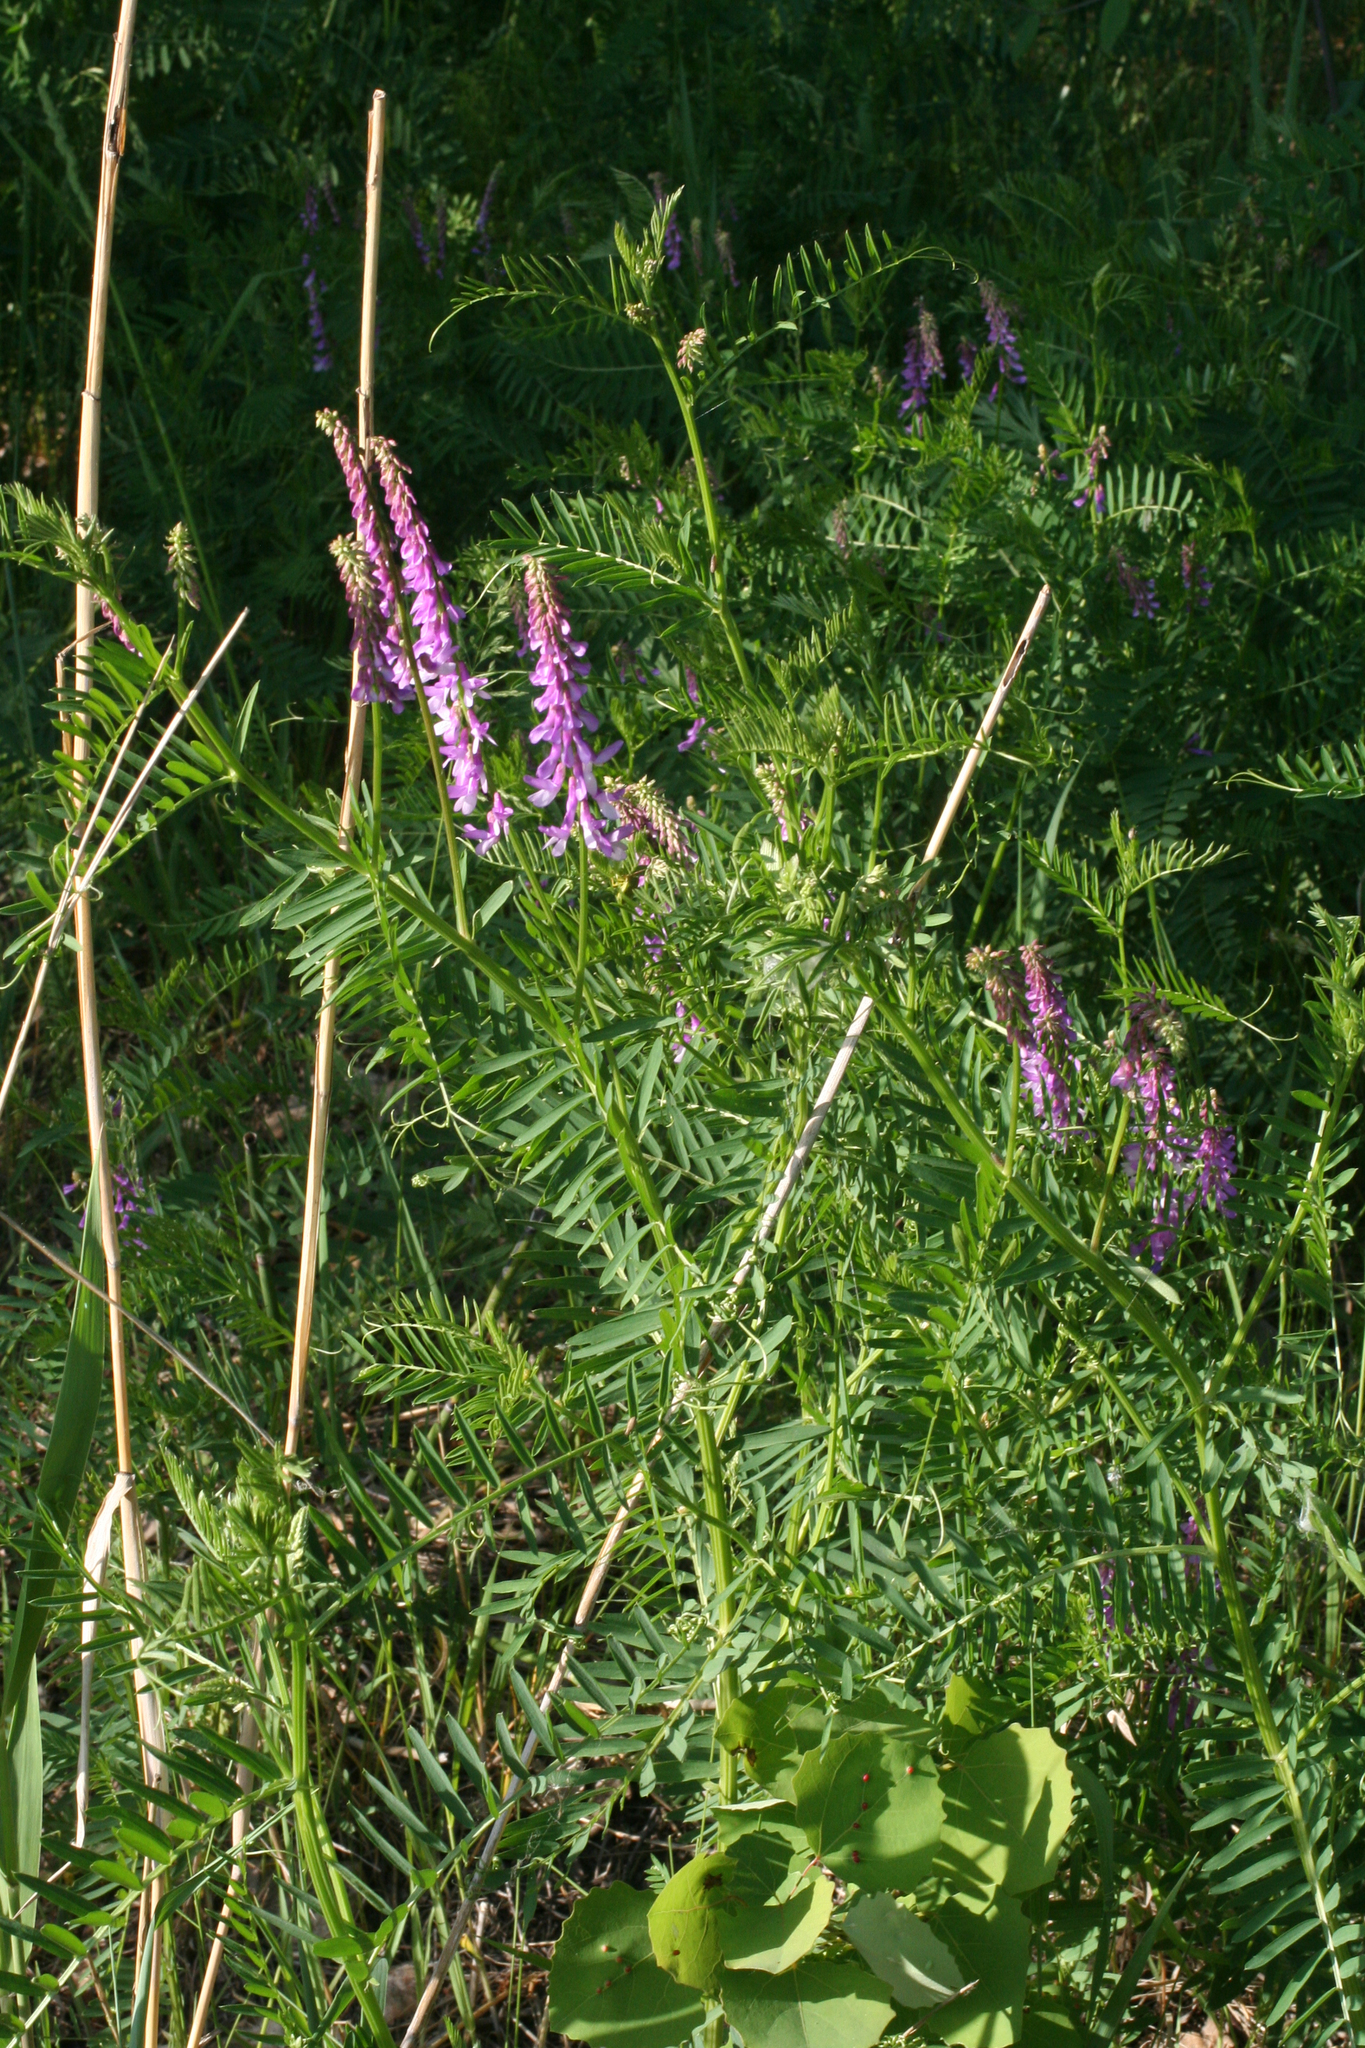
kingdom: Plantae
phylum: Tracheophyta
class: Magnoliopsida
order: Fabales
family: Fabaceae
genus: Vicia
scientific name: Vicia tenuifolia
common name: Fine-leaved vetch
